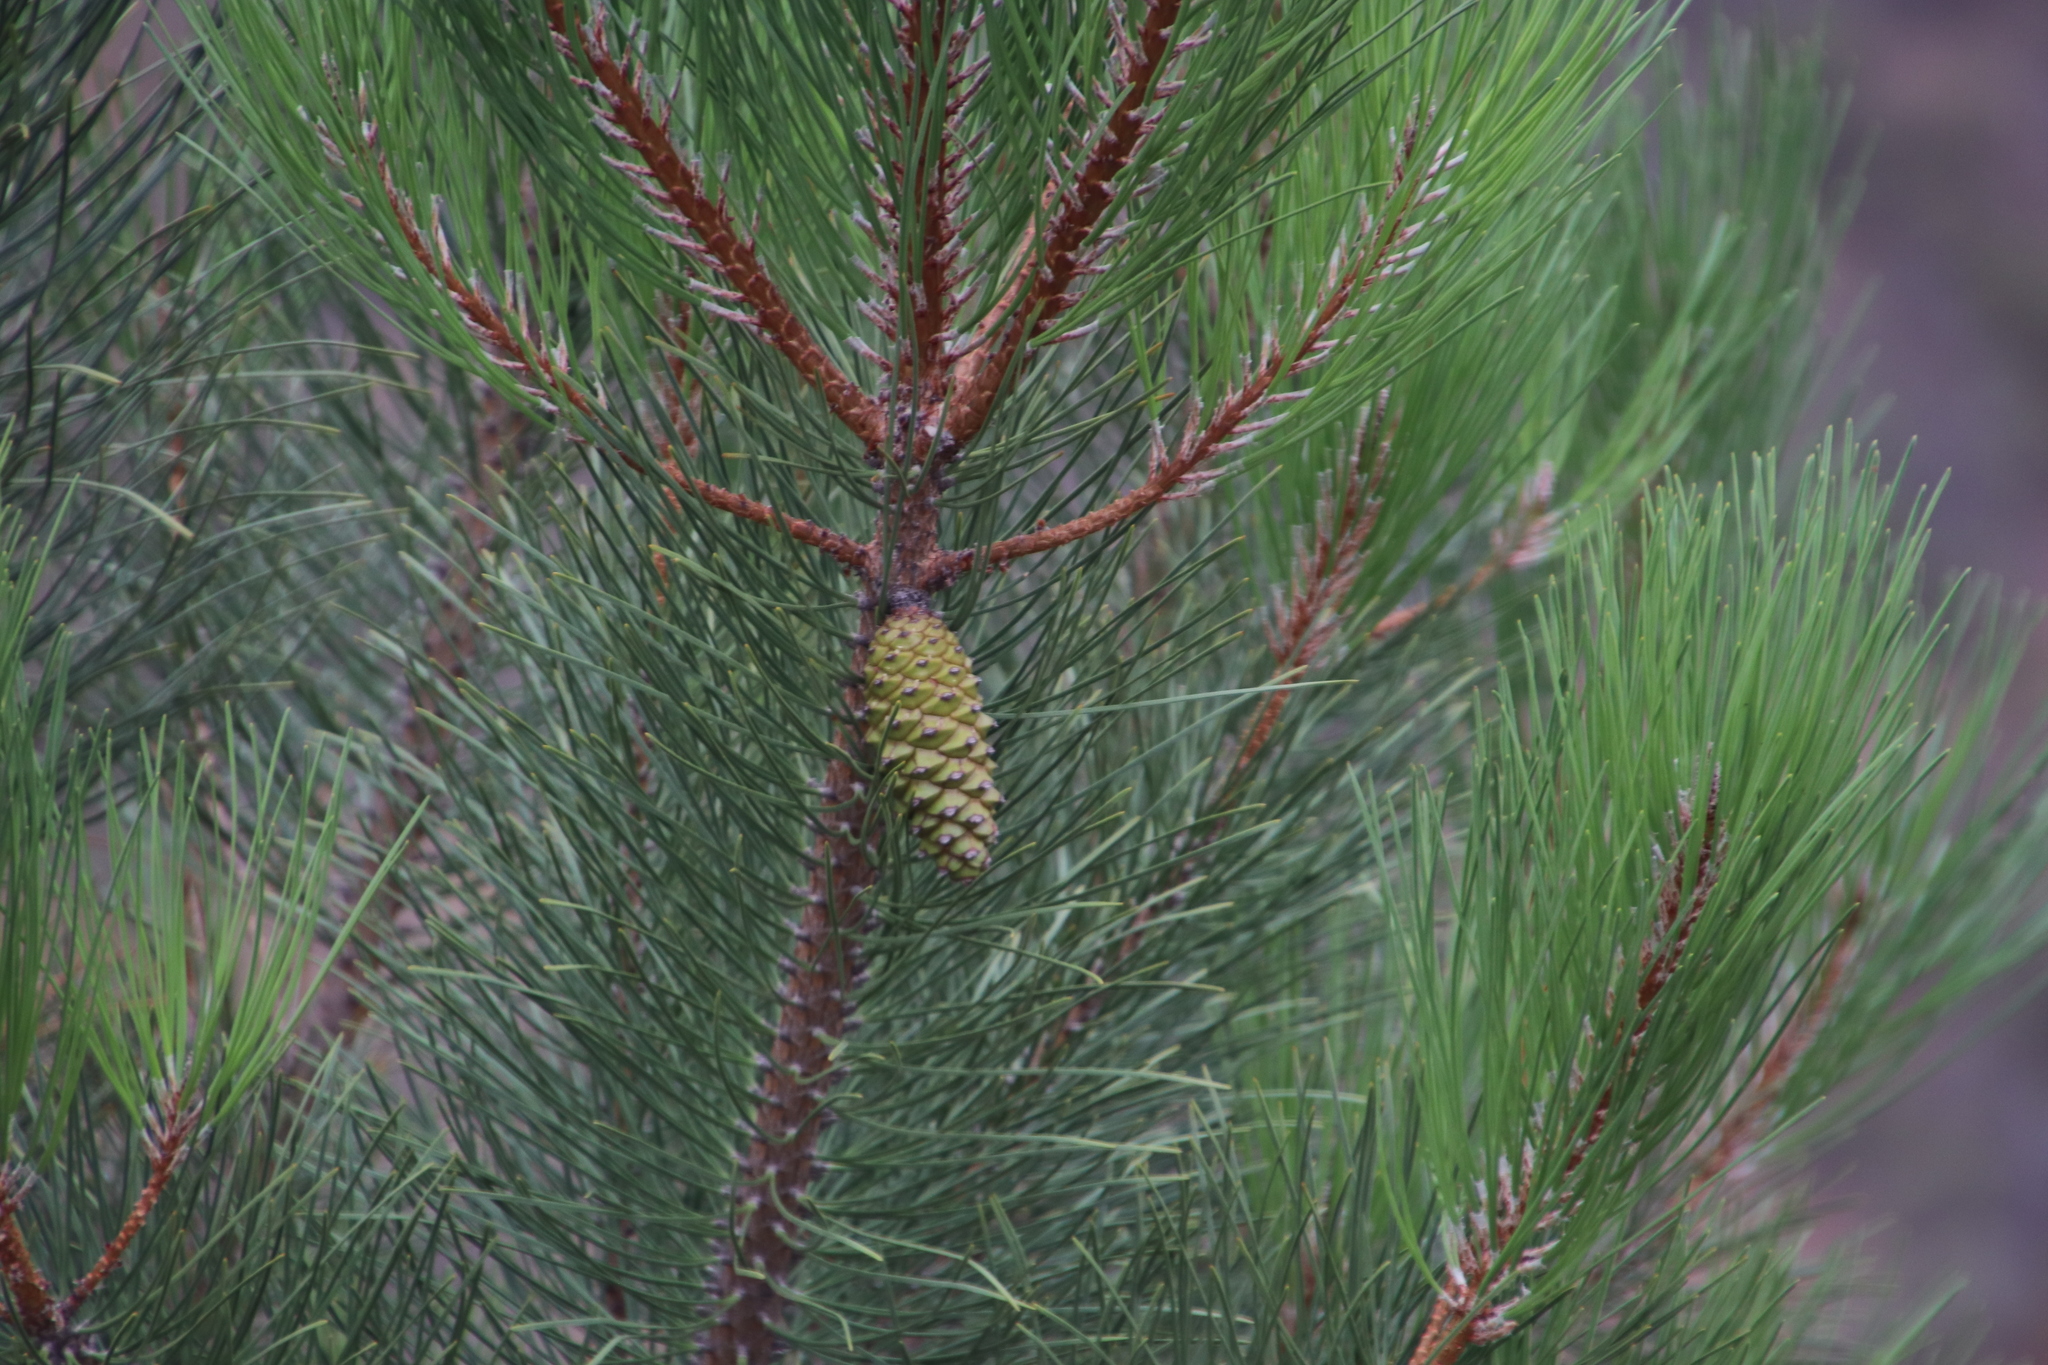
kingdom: Plantae
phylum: Tracheophyta
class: Pinopsida
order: Pinales
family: Pinaceae
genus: Pinus
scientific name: Pinus pinaster
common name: Maritime pine
